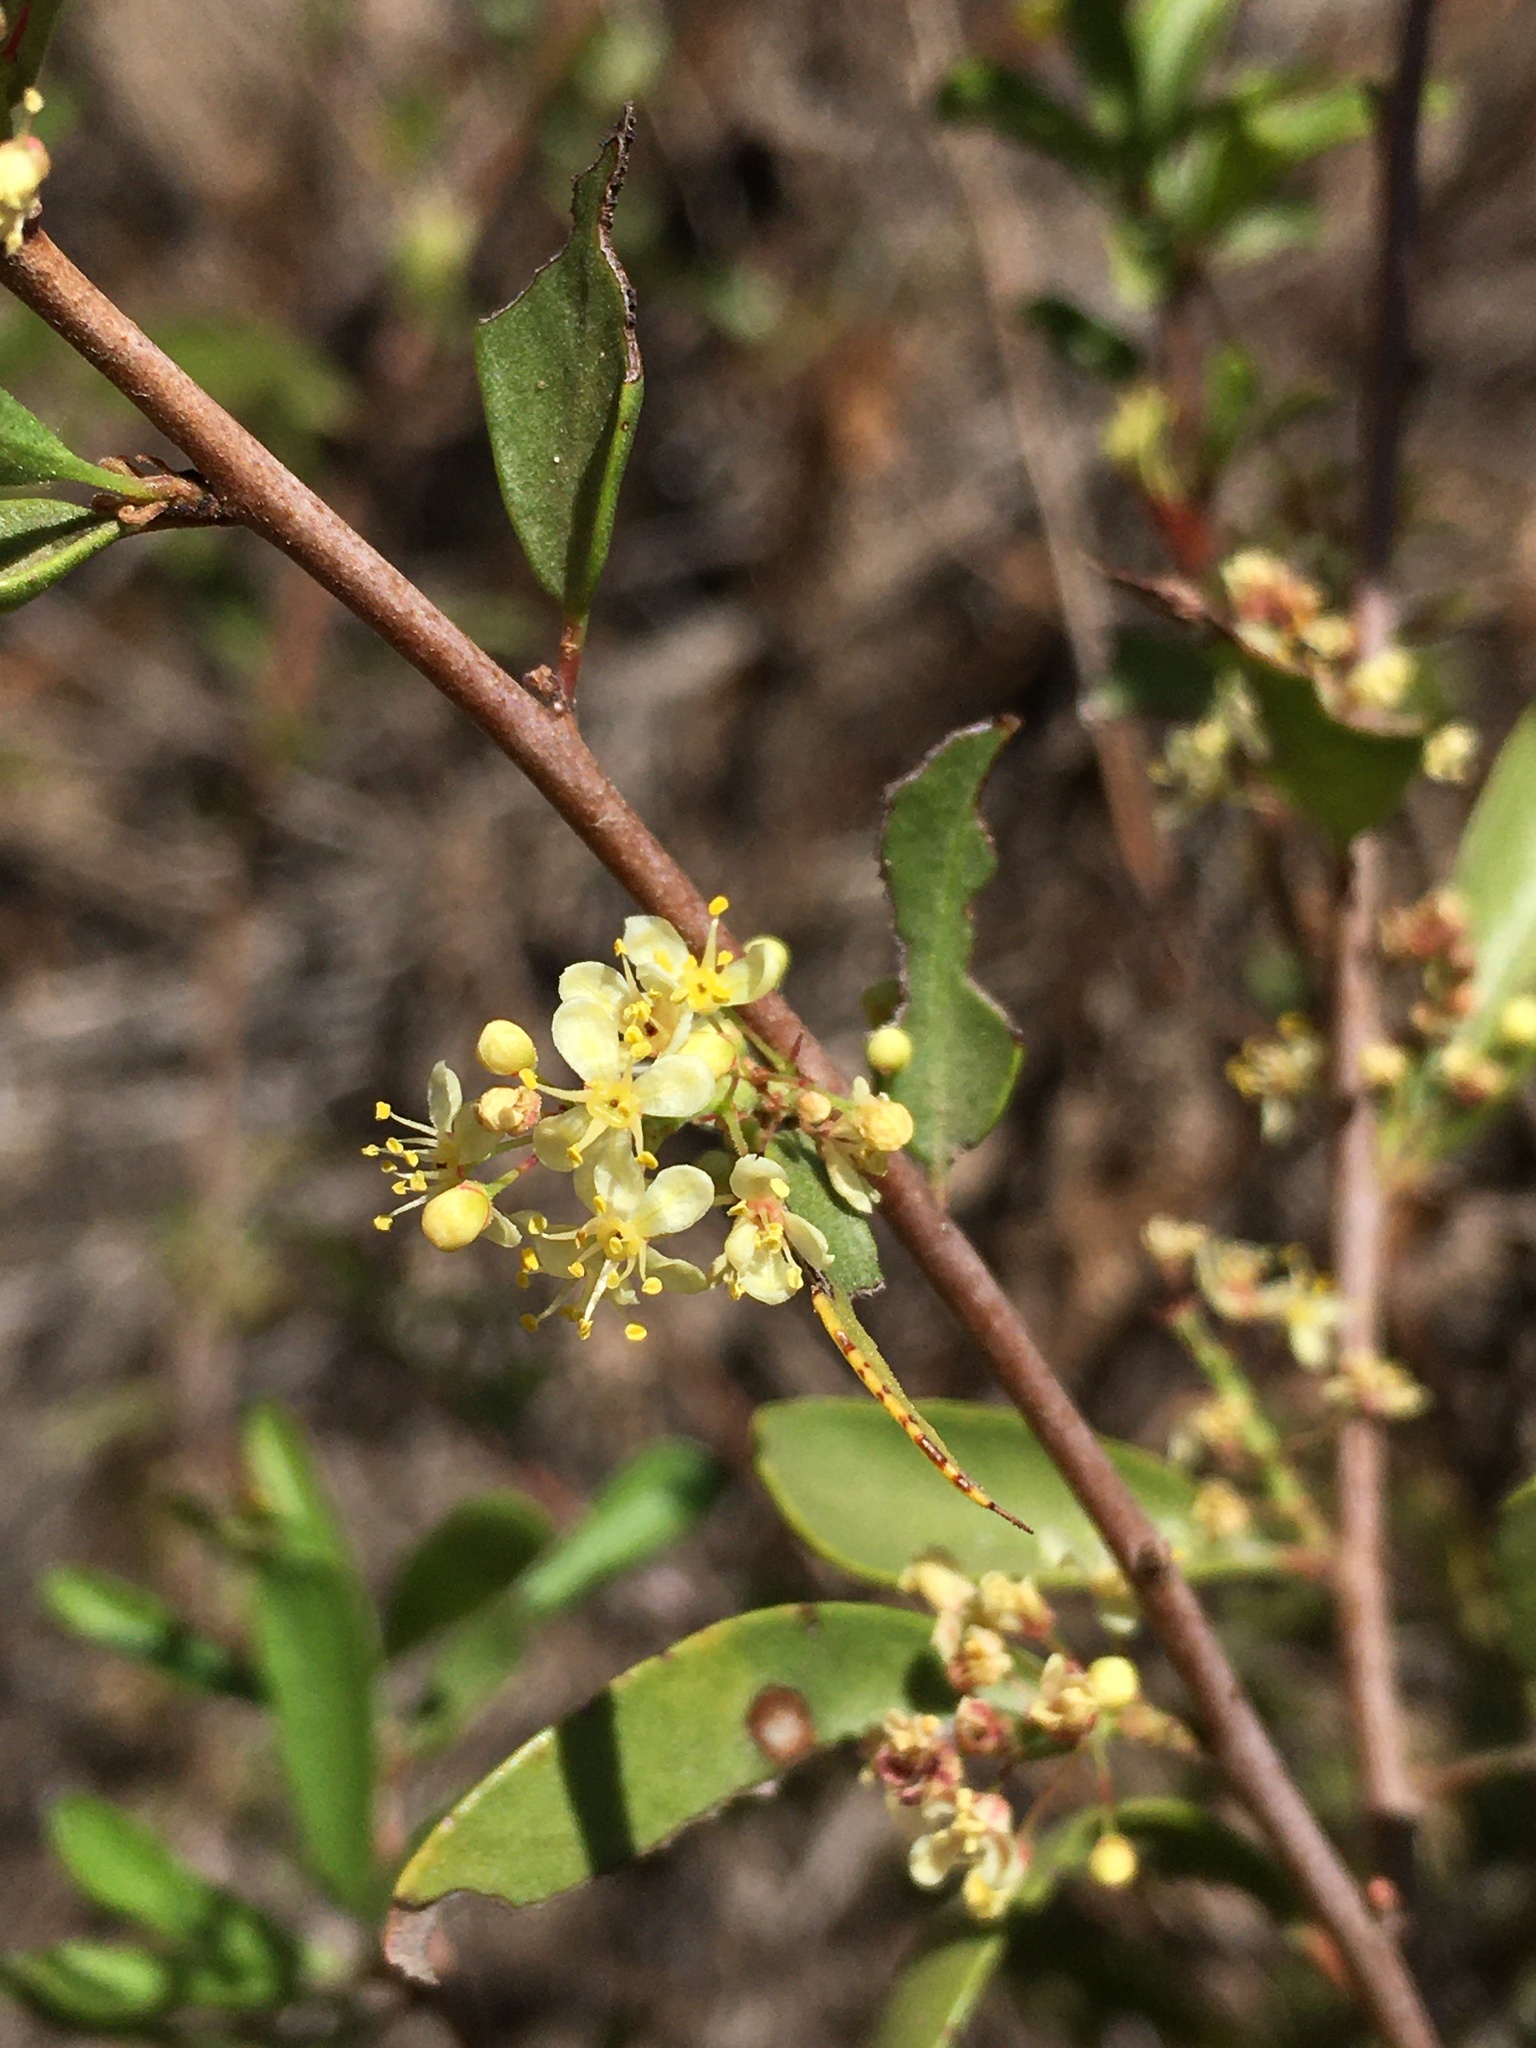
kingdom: Plantae
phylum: Tracheophyta
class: Magnoliopsida
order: Sapindales
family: Anacardiaceae
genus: Schinus
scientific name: Schinus polygama
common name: Hardee peppertree
